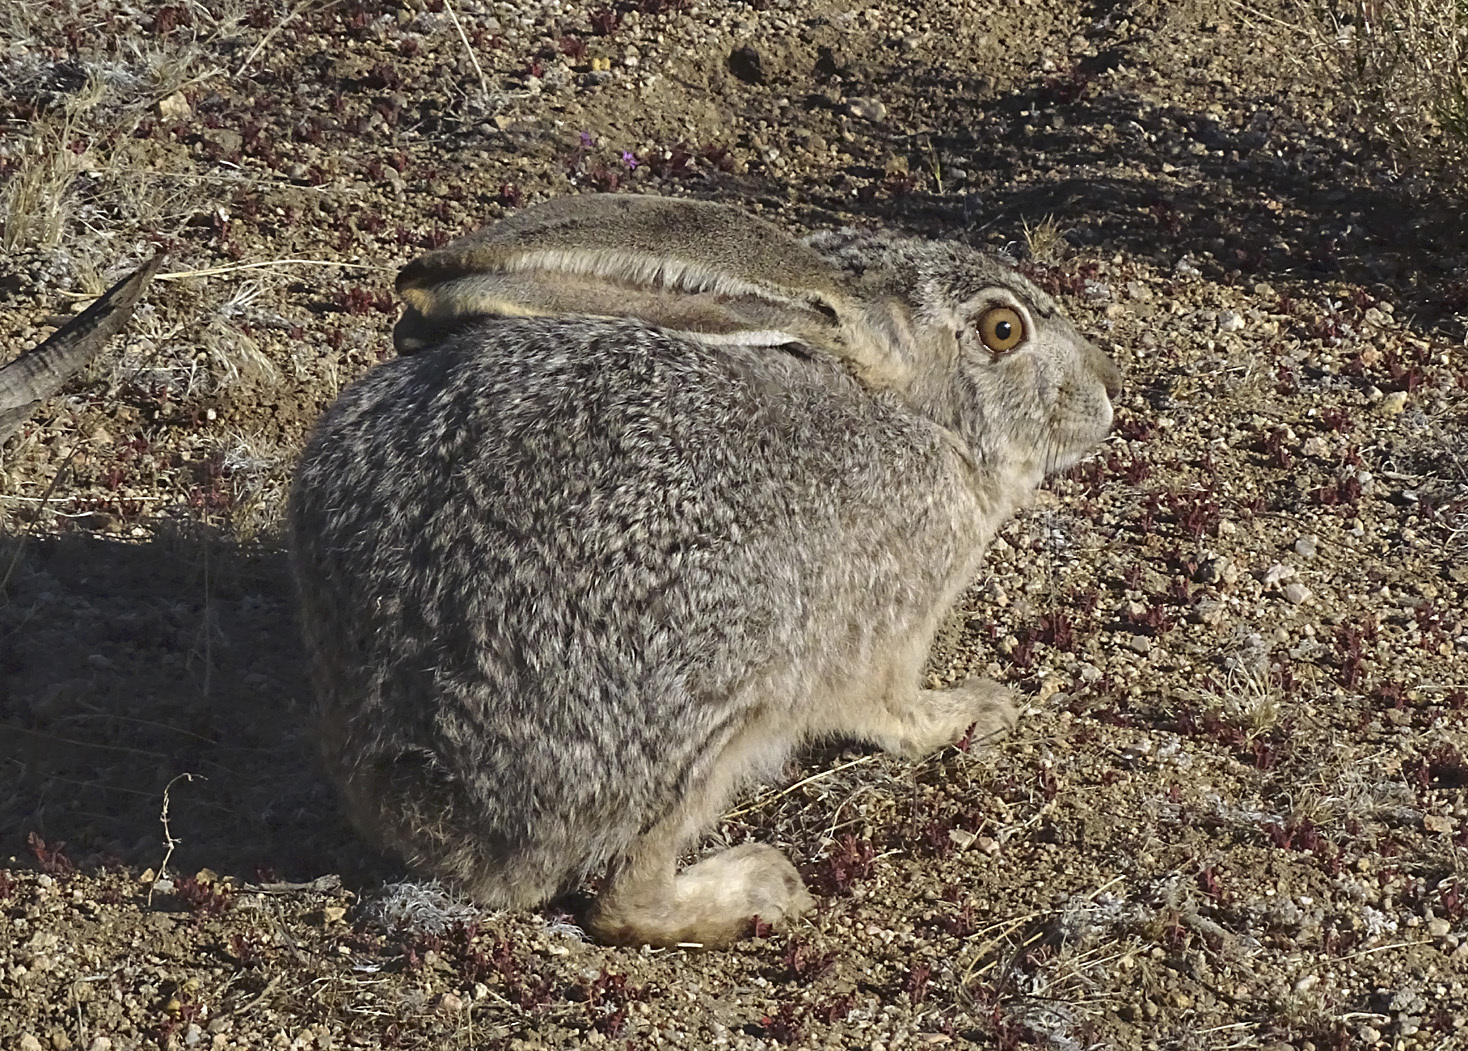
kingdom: Animalia
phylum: Chordata
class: Mammalia
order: Lagomorpha
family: Leporidae
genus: Lepus
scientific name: Lepus californicus
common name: Black-tailed jackrabbit
